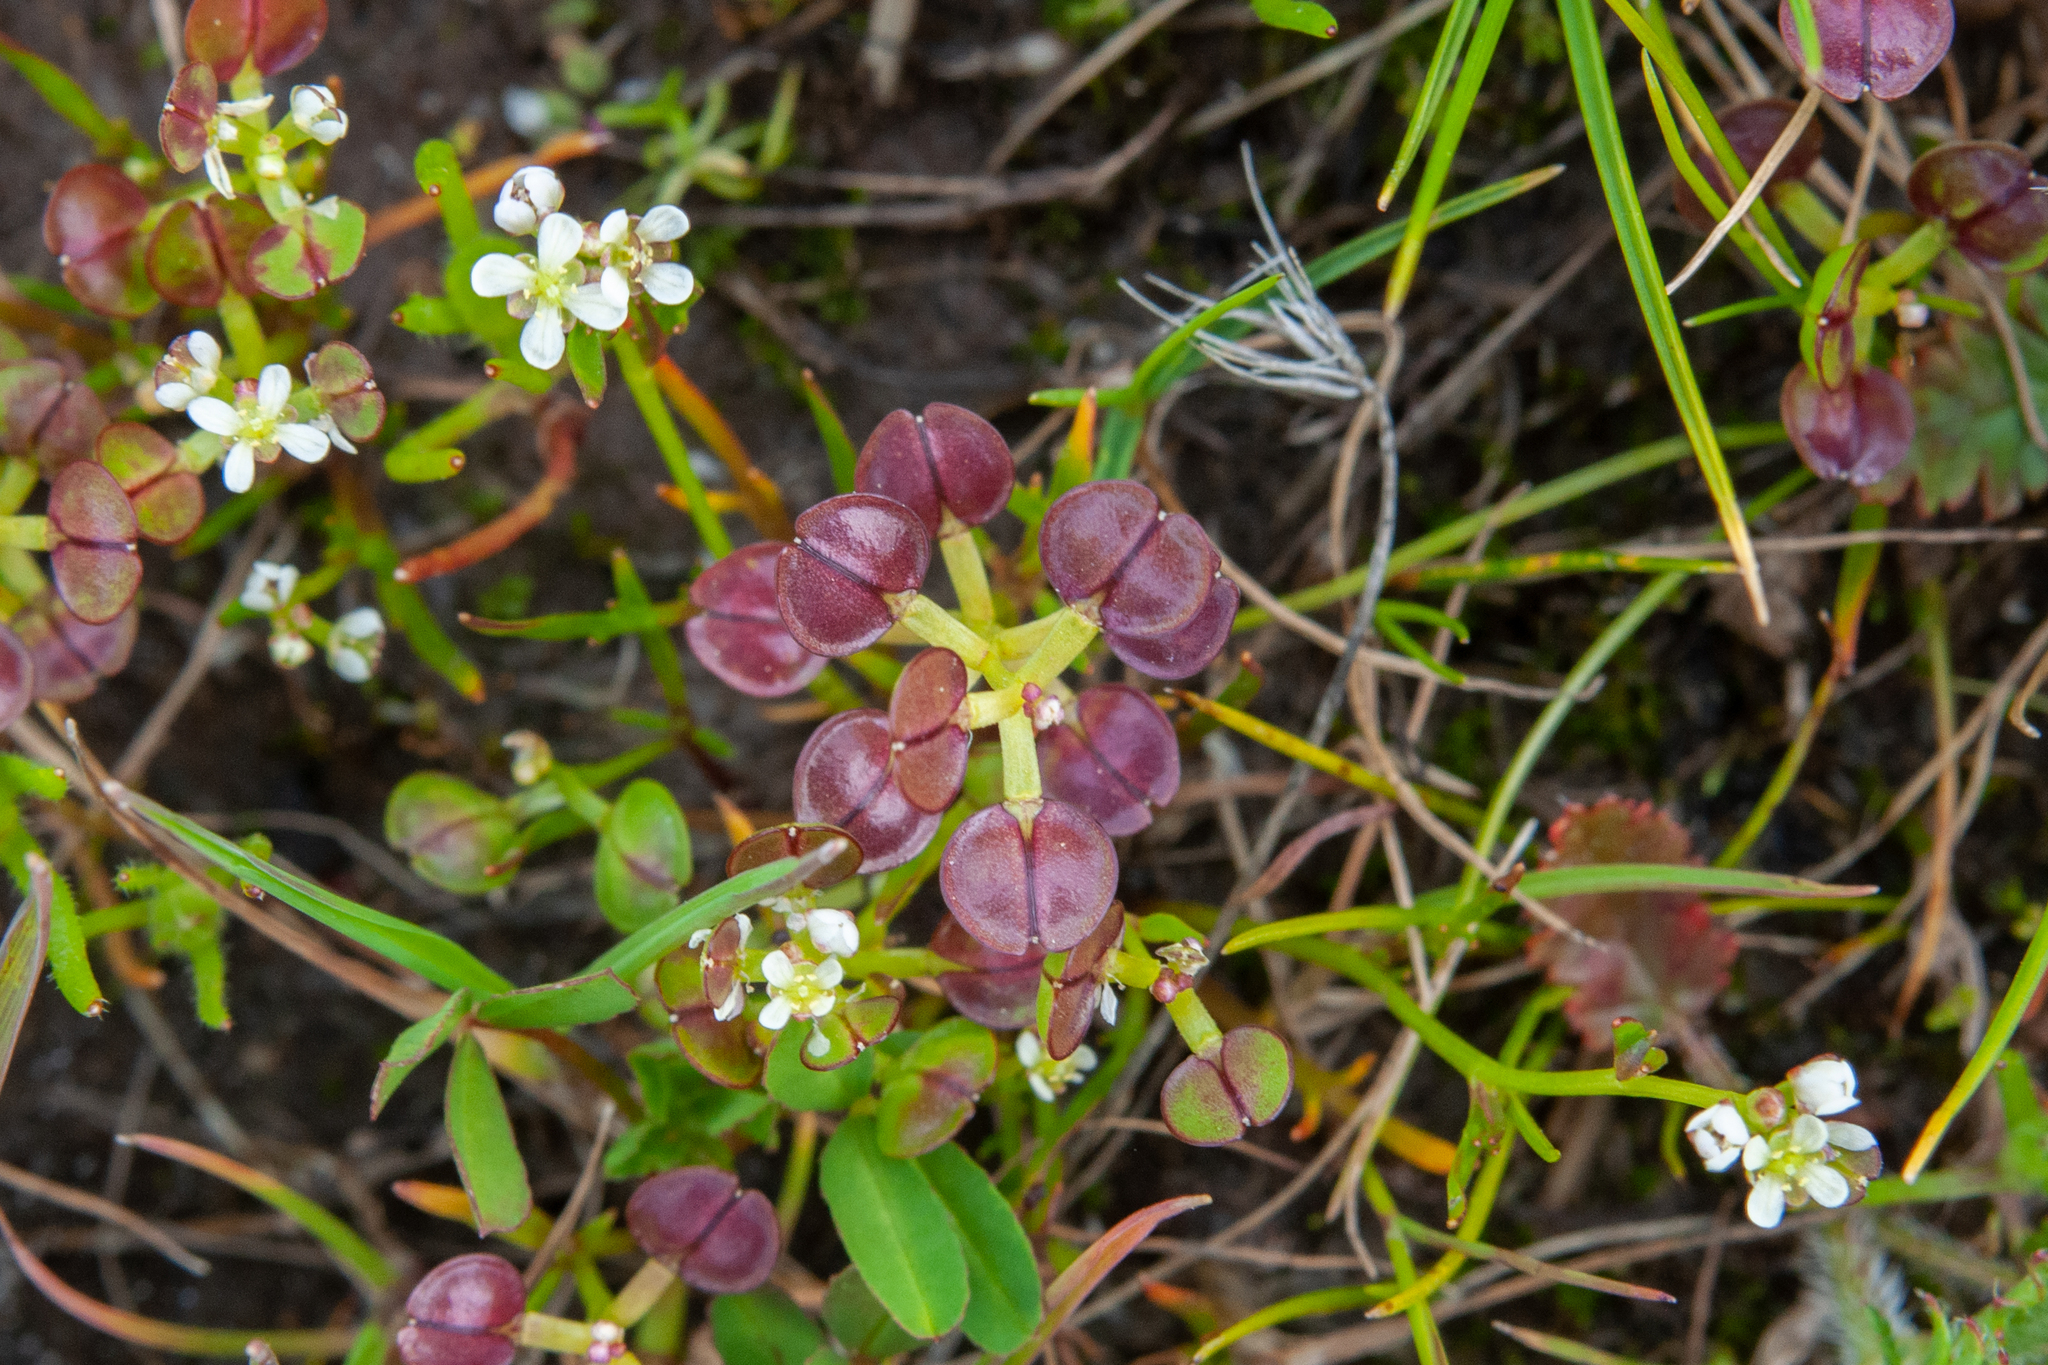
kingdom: Plantae
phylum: Tracheophyta
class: Magnoliopsida
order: Brassicales
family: Brassicaceae
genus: Lepidium
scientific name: Lepidium nitidum
